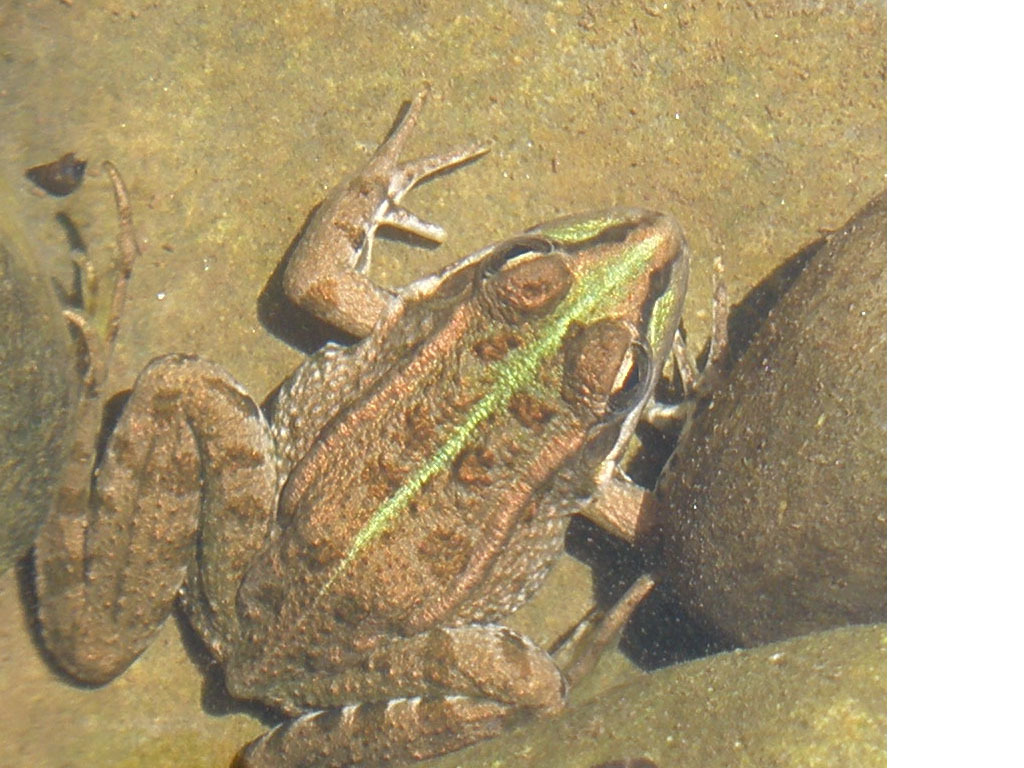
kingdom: Animalia
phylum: Chordata
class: Amphibia
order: Anura
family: Ranidae
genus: Pelophylax
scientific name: Pelophylax perezi
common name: Perez's frog
